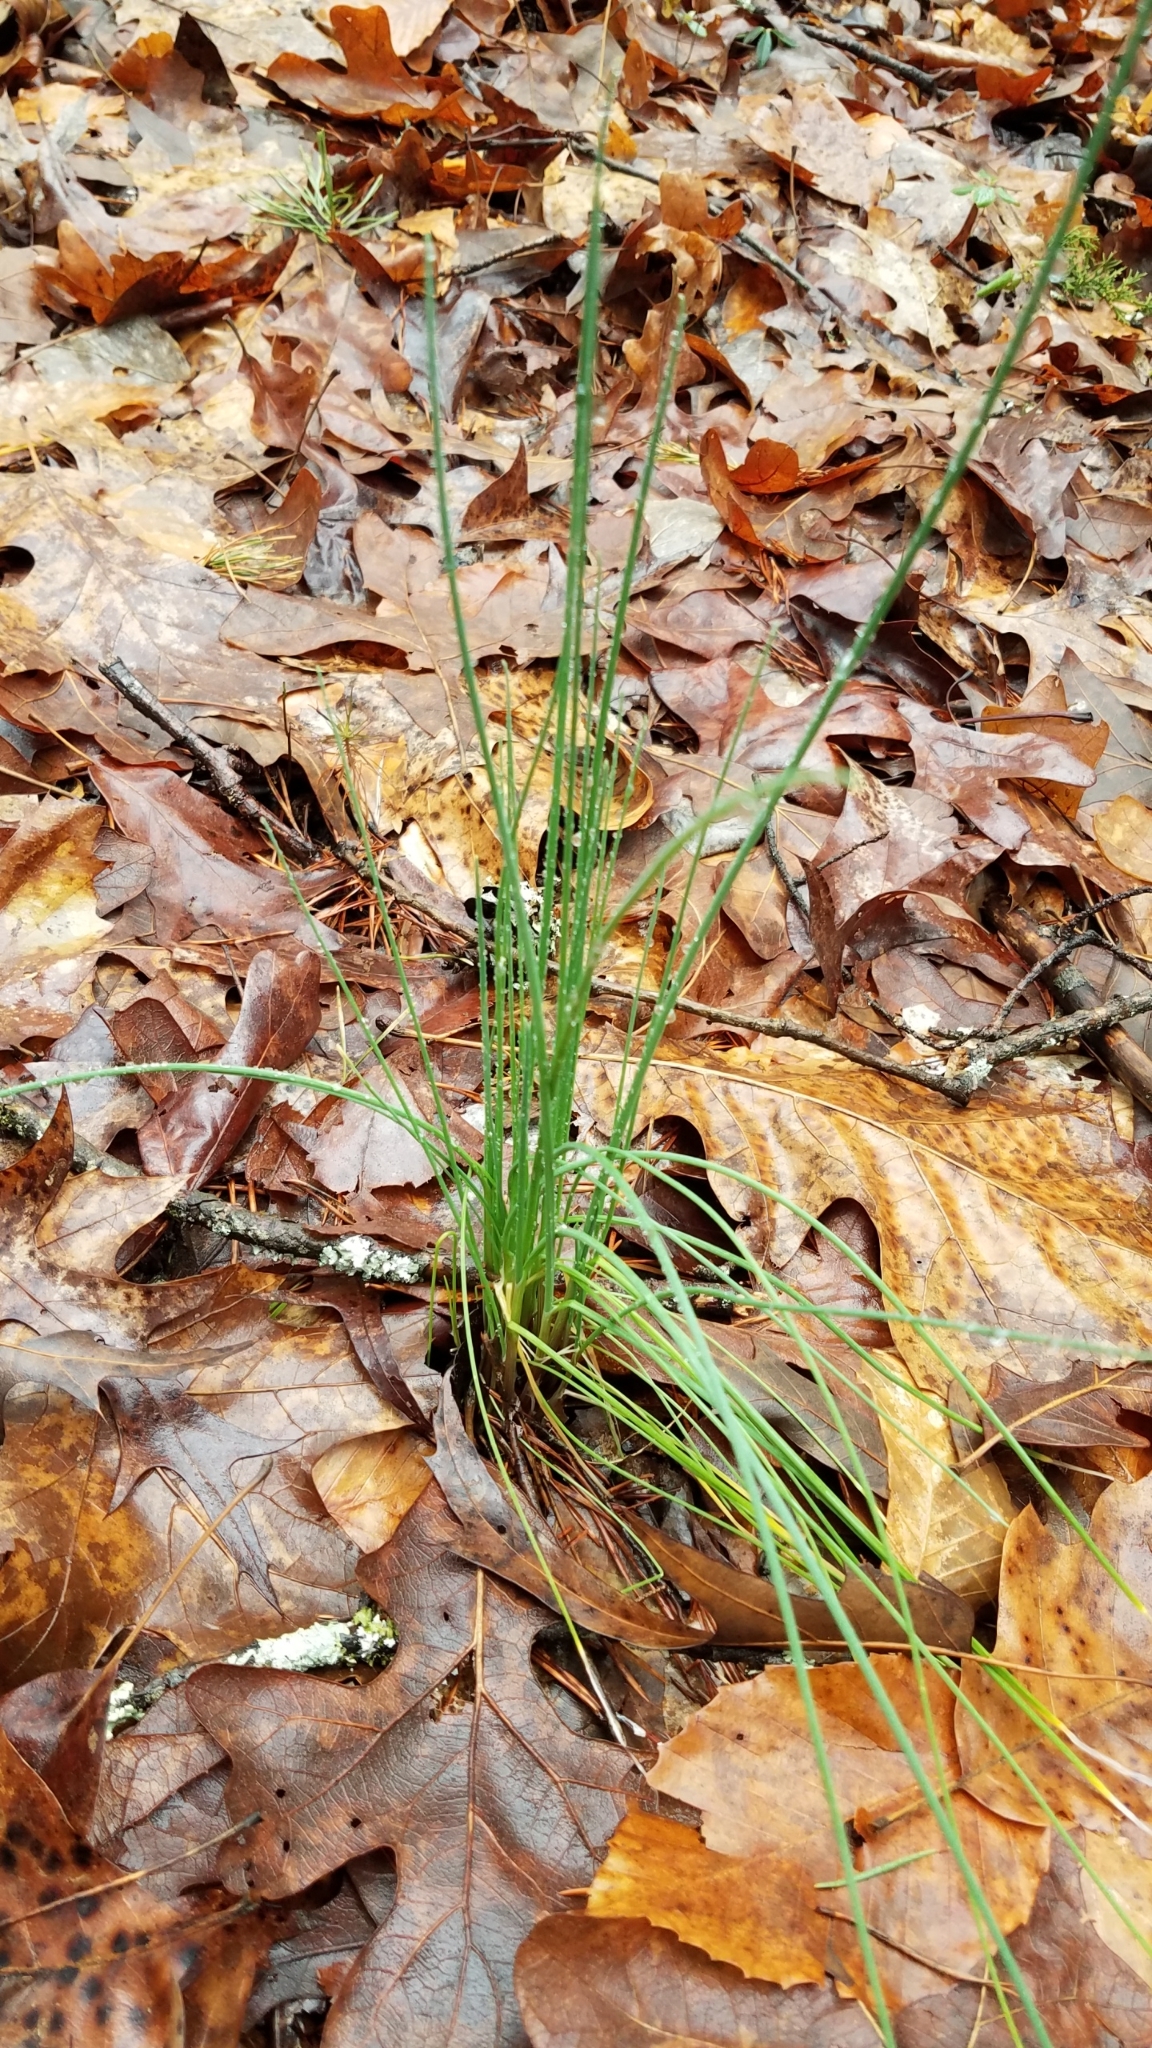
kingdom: Plantae
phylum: Tracheophyta
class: Liliopsida
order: Asparagales
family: Amaryllidaceae
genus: Allium
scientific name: Allium vineale
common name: Crow garlic
